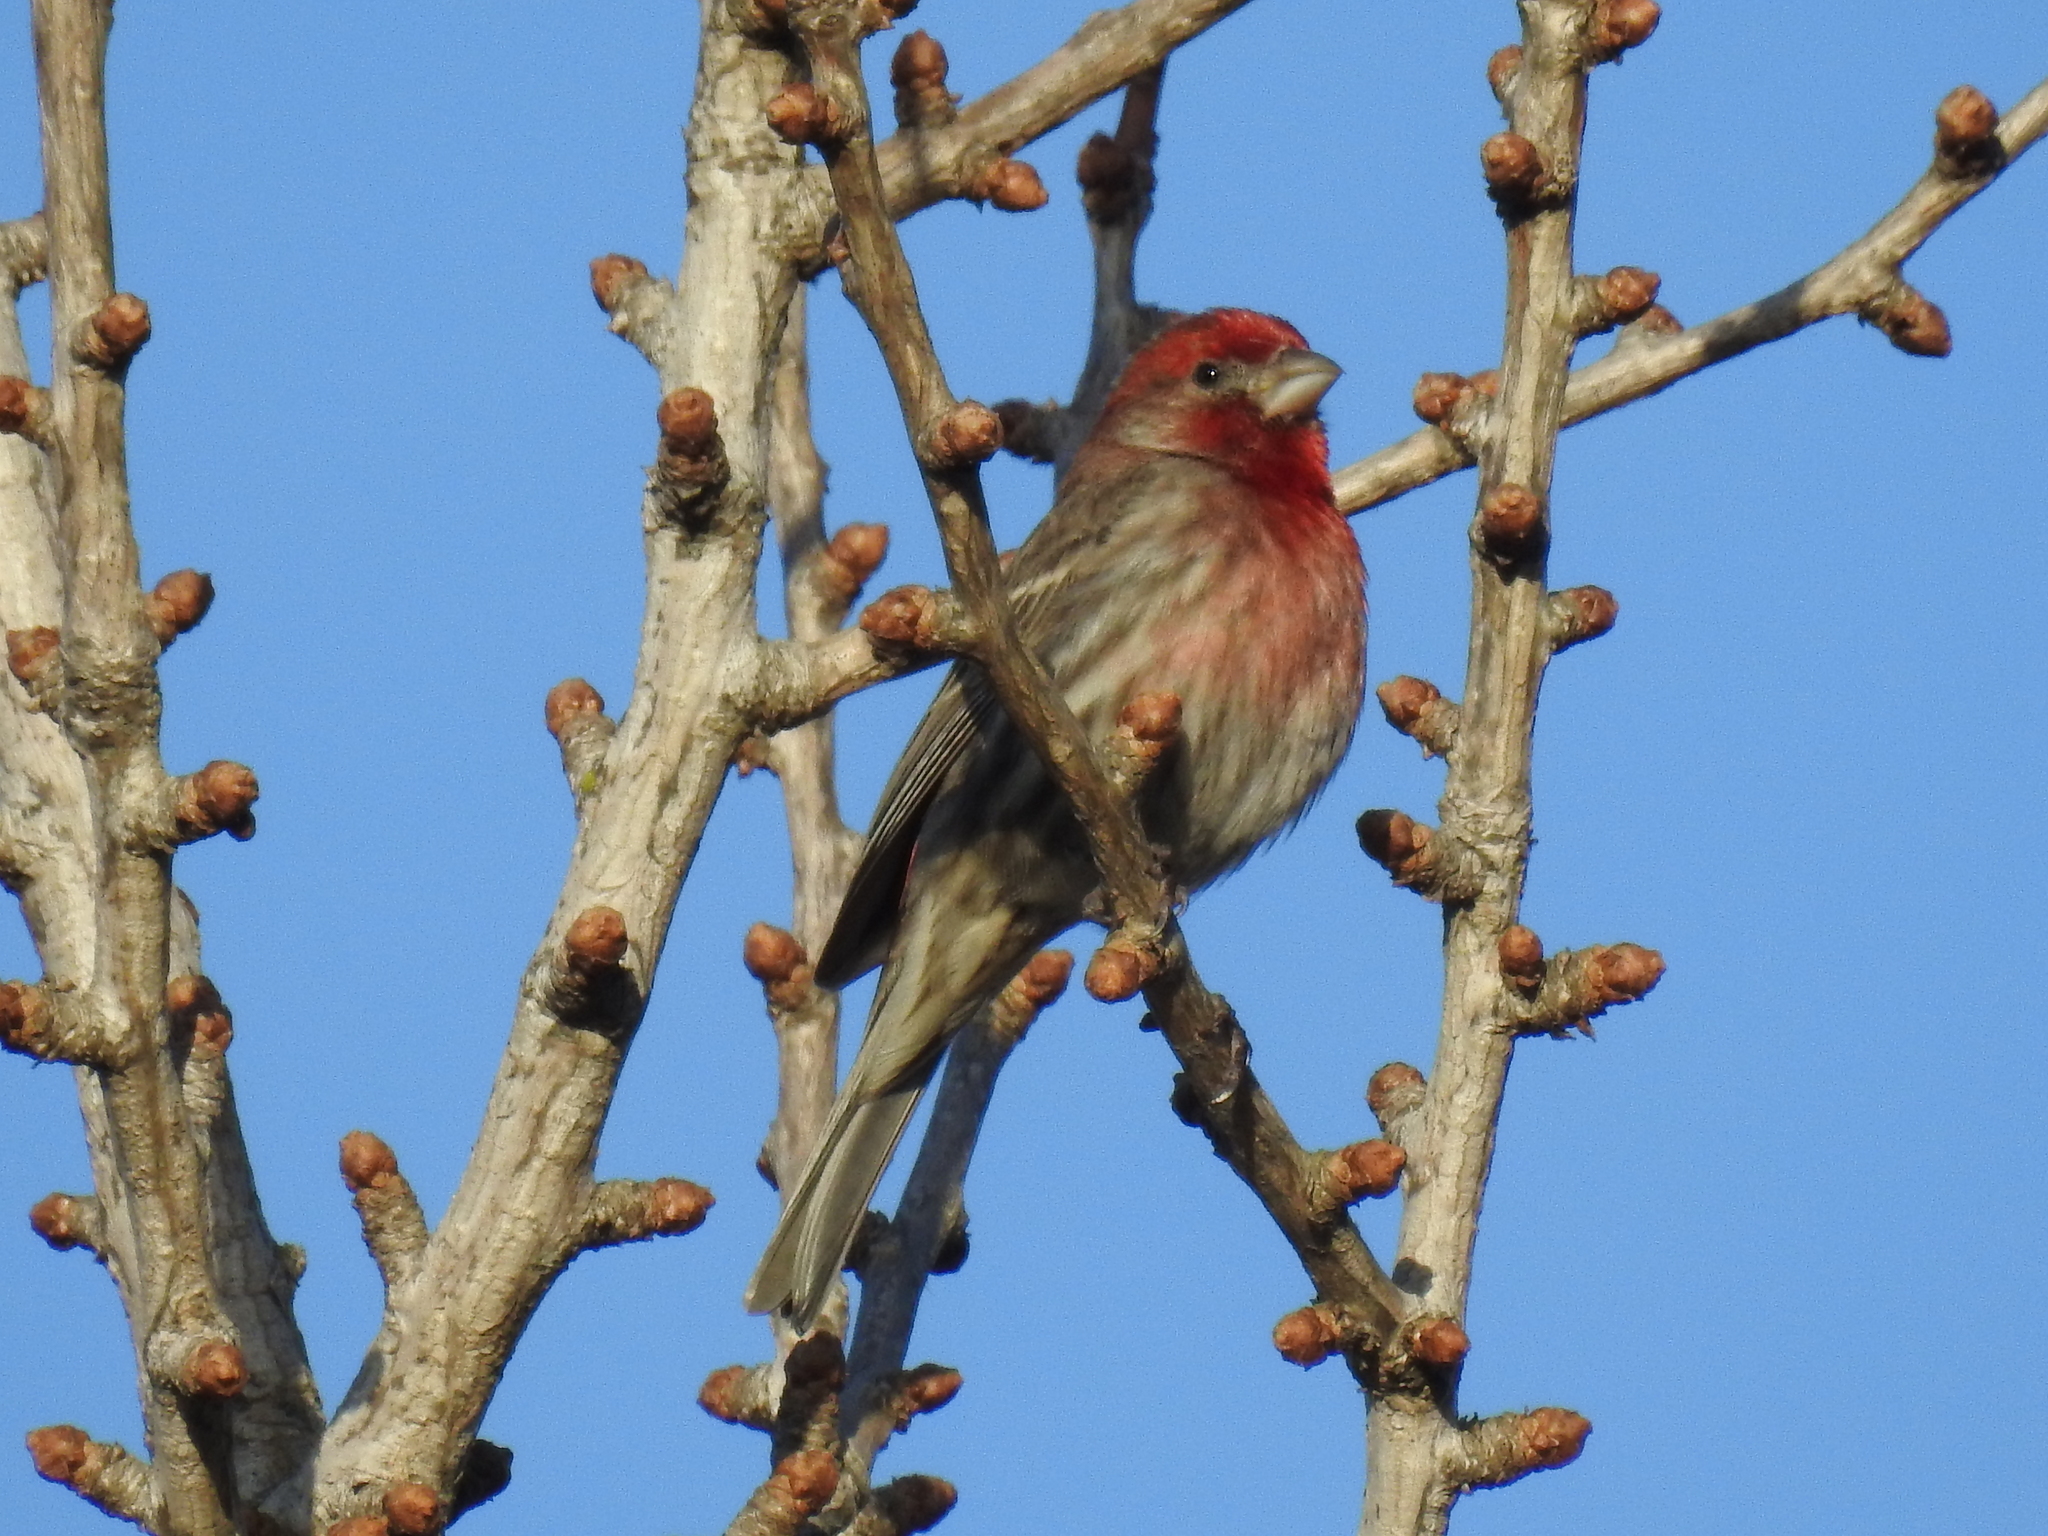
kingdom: Animalia
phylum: Chordata
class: Aves
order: Passeriformes
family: Fringillidae
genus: Haemorhous
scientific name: Haemorhous mexicanus
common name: House finch
